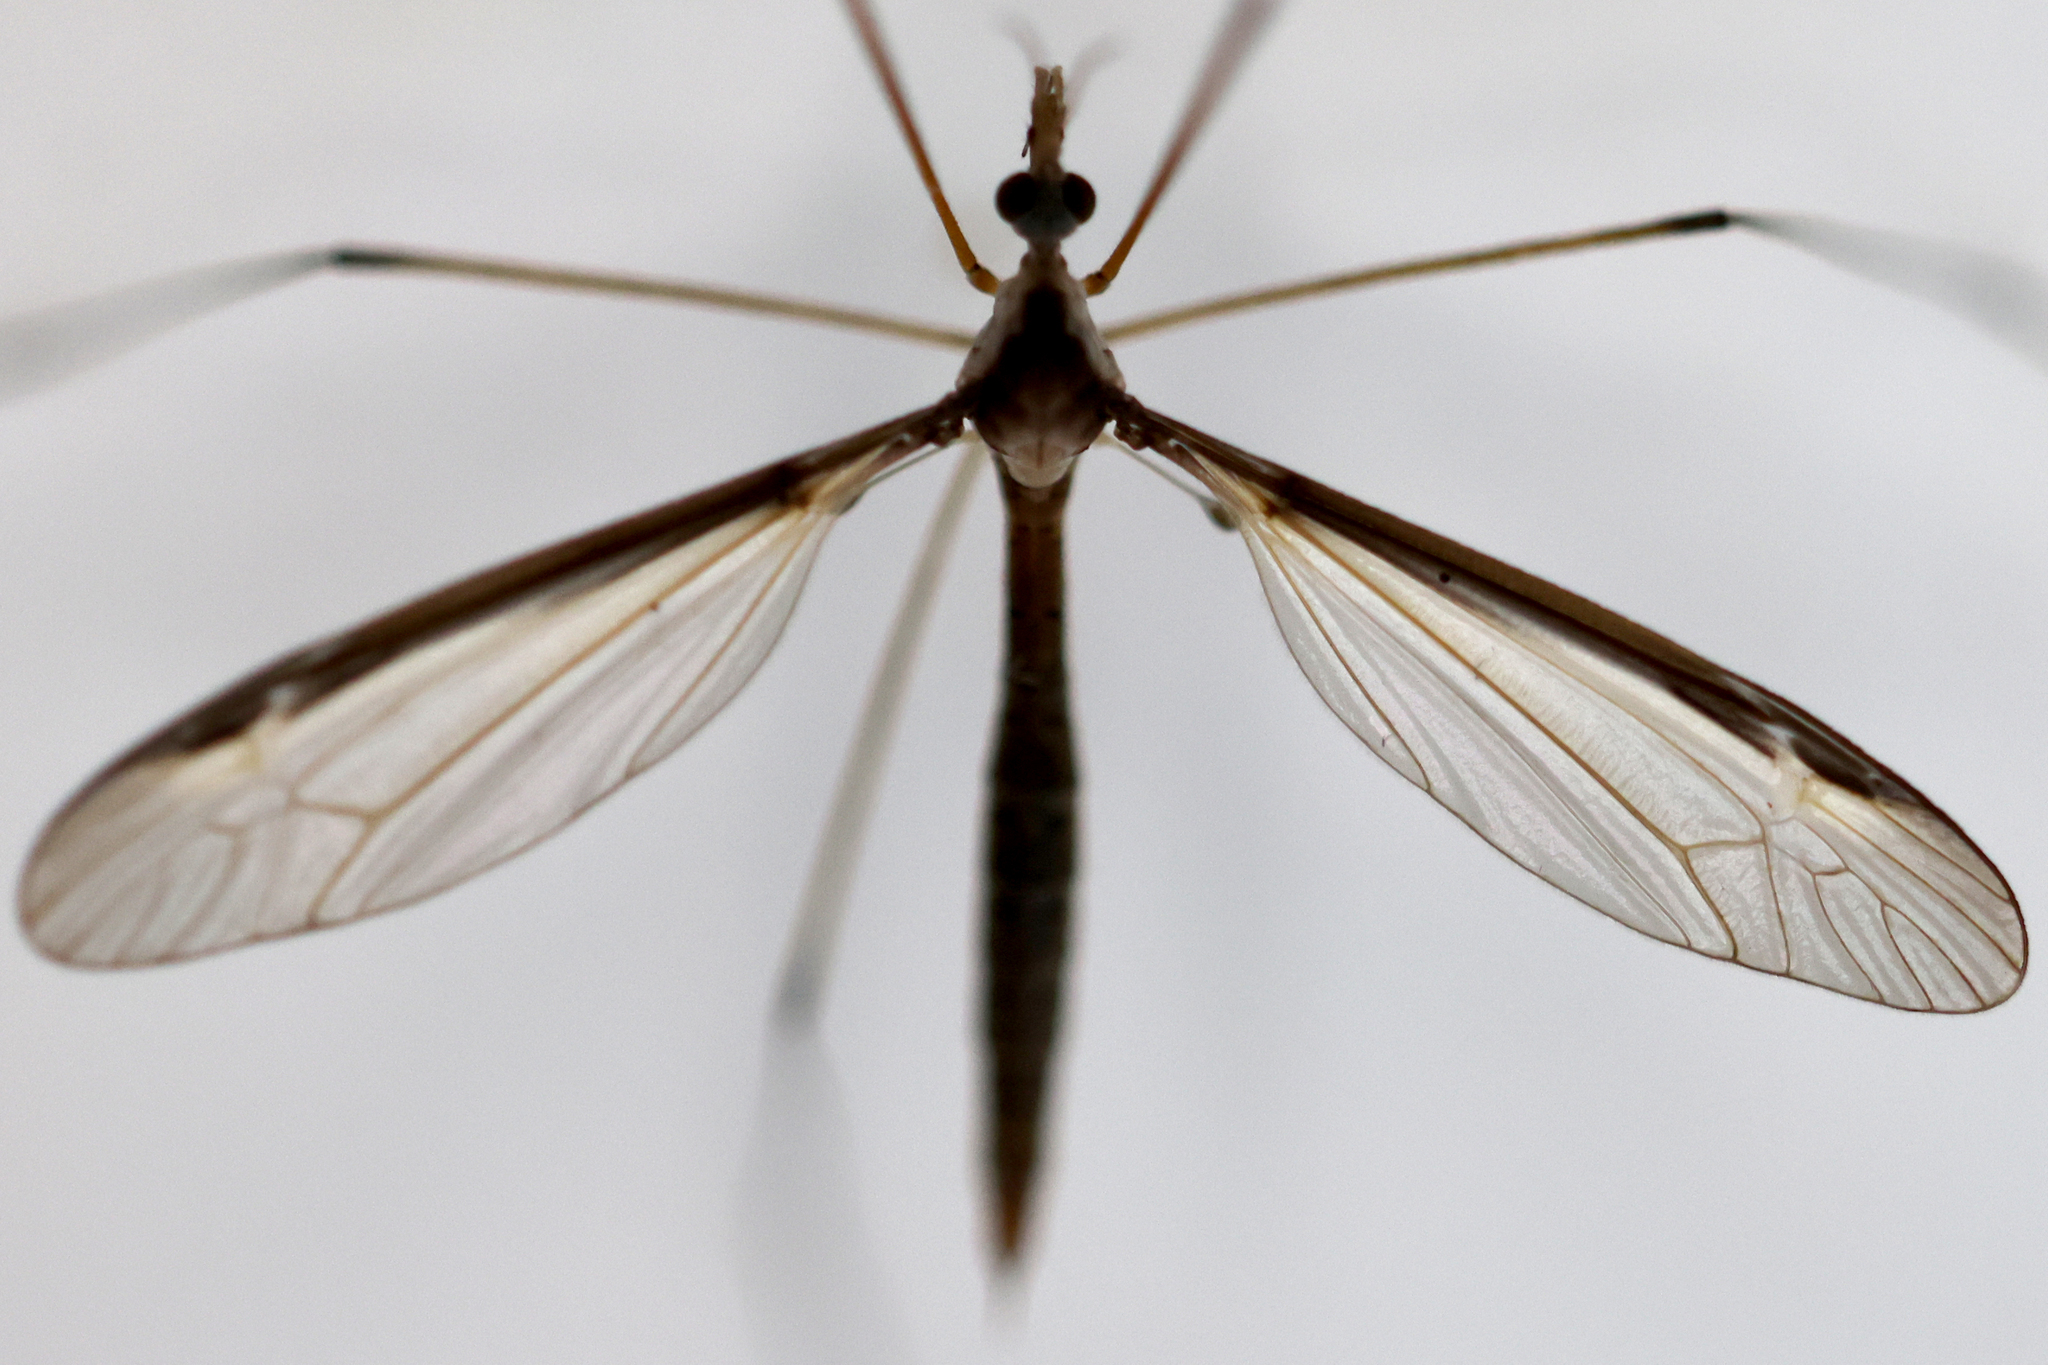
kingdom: Animalia
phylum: Arthropoda
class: Insecta
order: Diptera
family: Tipulidae
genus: Tipula
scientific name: Tipula sayi
